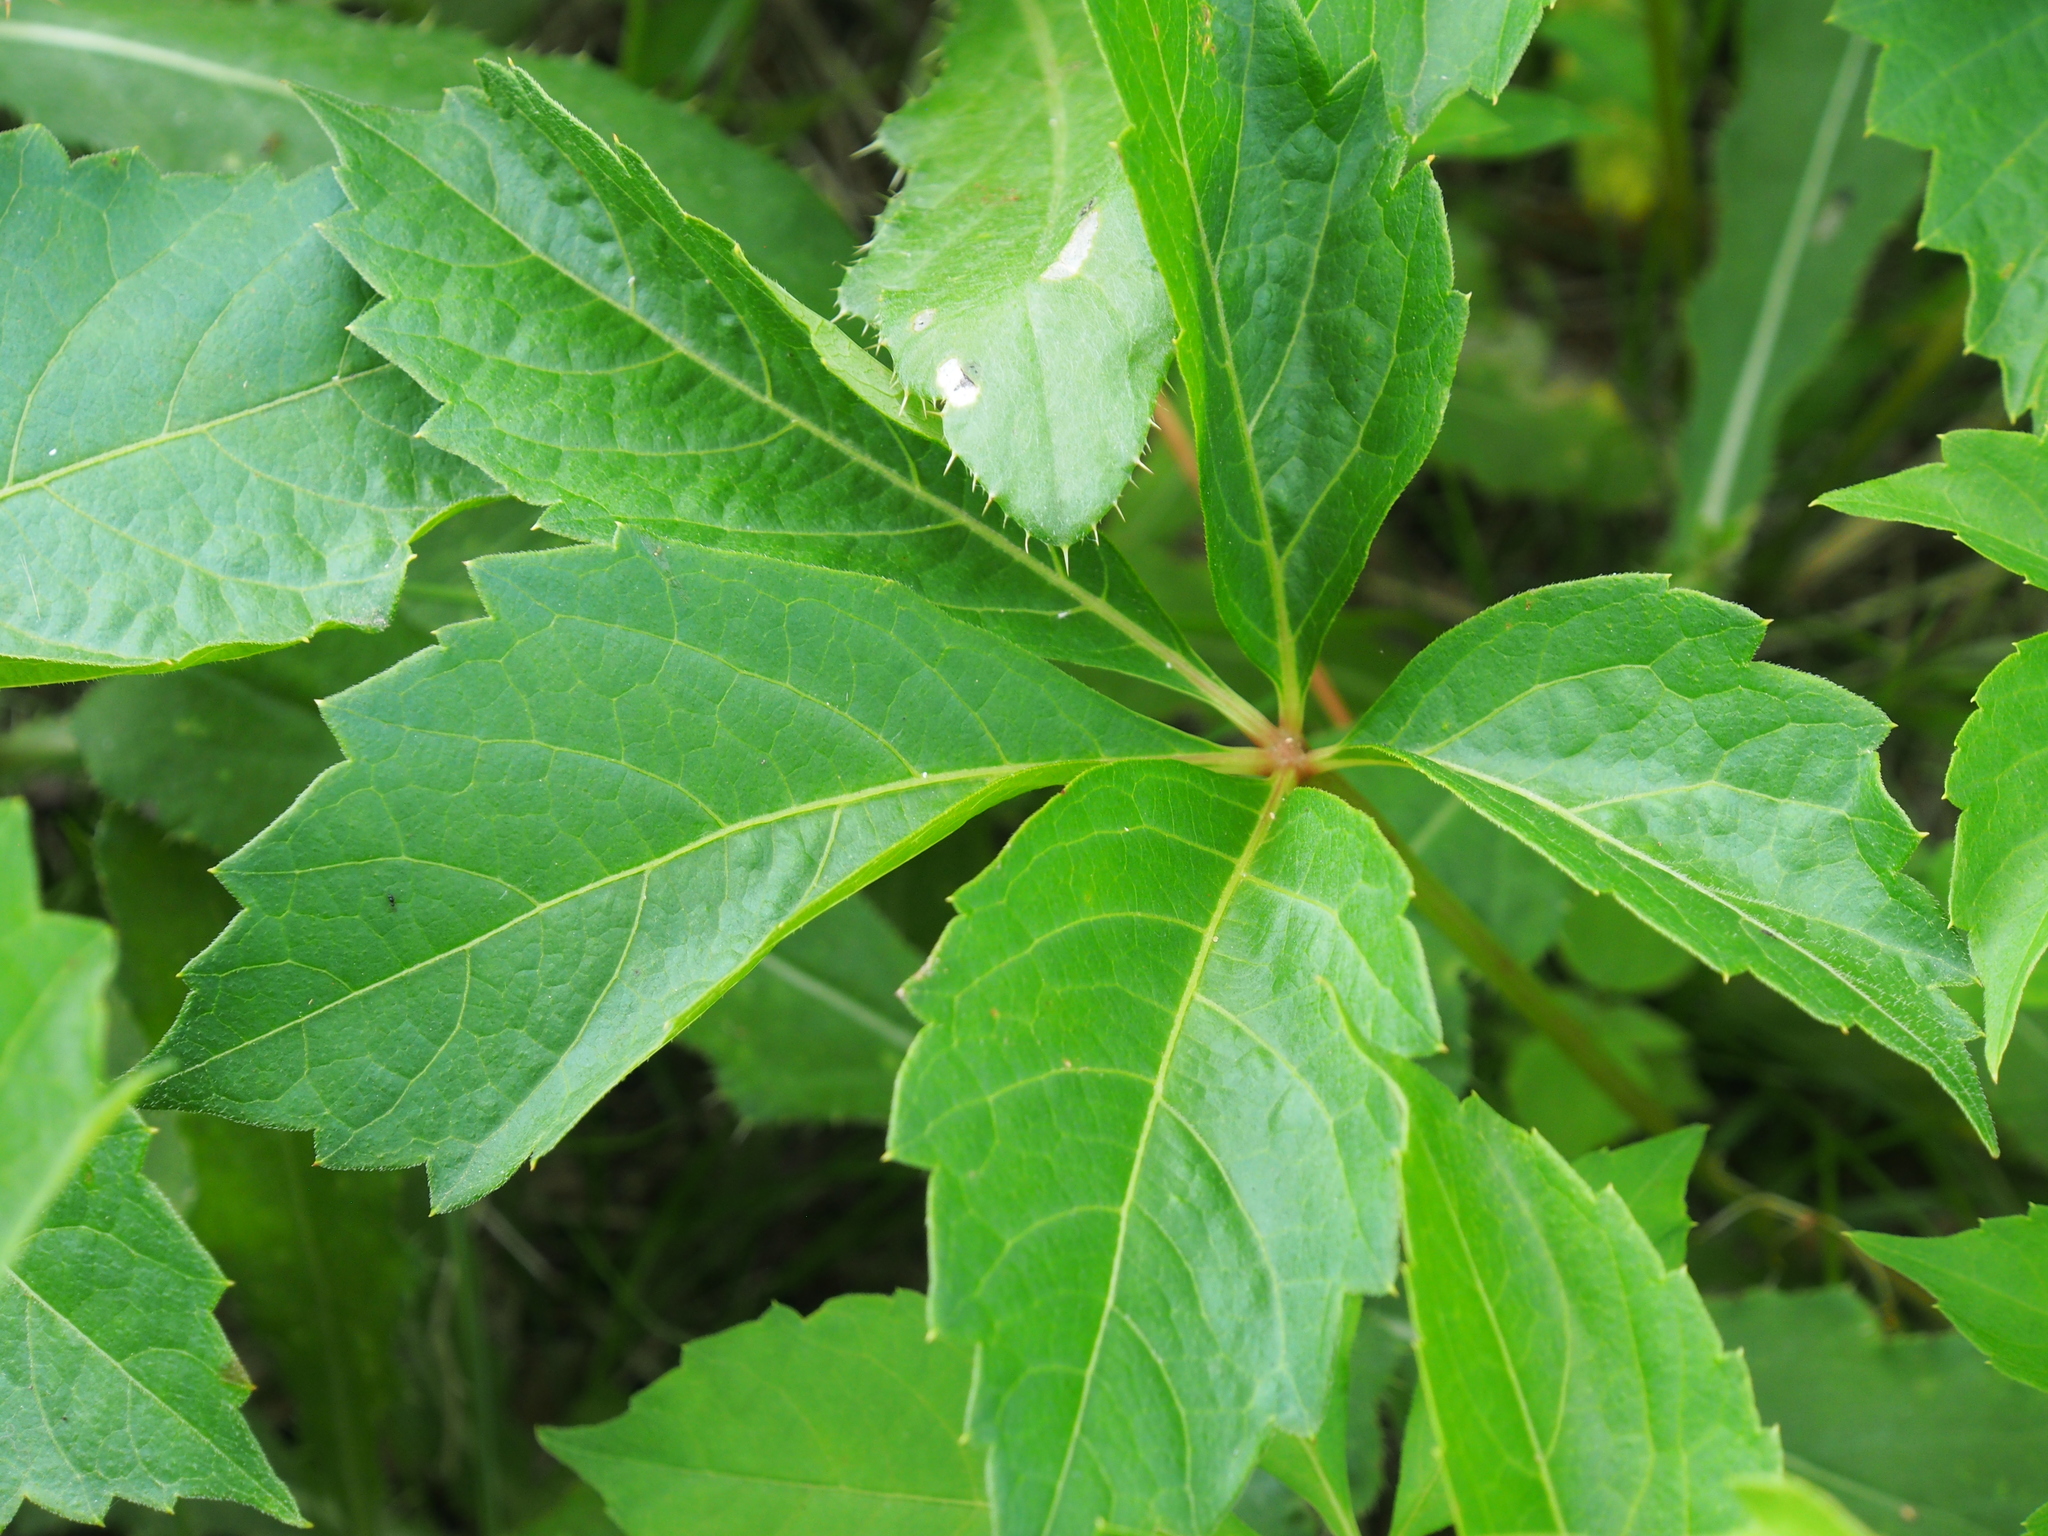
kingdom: Plantae
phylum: Tracheophyta
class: Magnoliopsida
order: Vitales
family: Vitaceae
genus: Parthenocissus
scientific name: Parthenocissus quinquefolia
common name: Virginia-creeper
